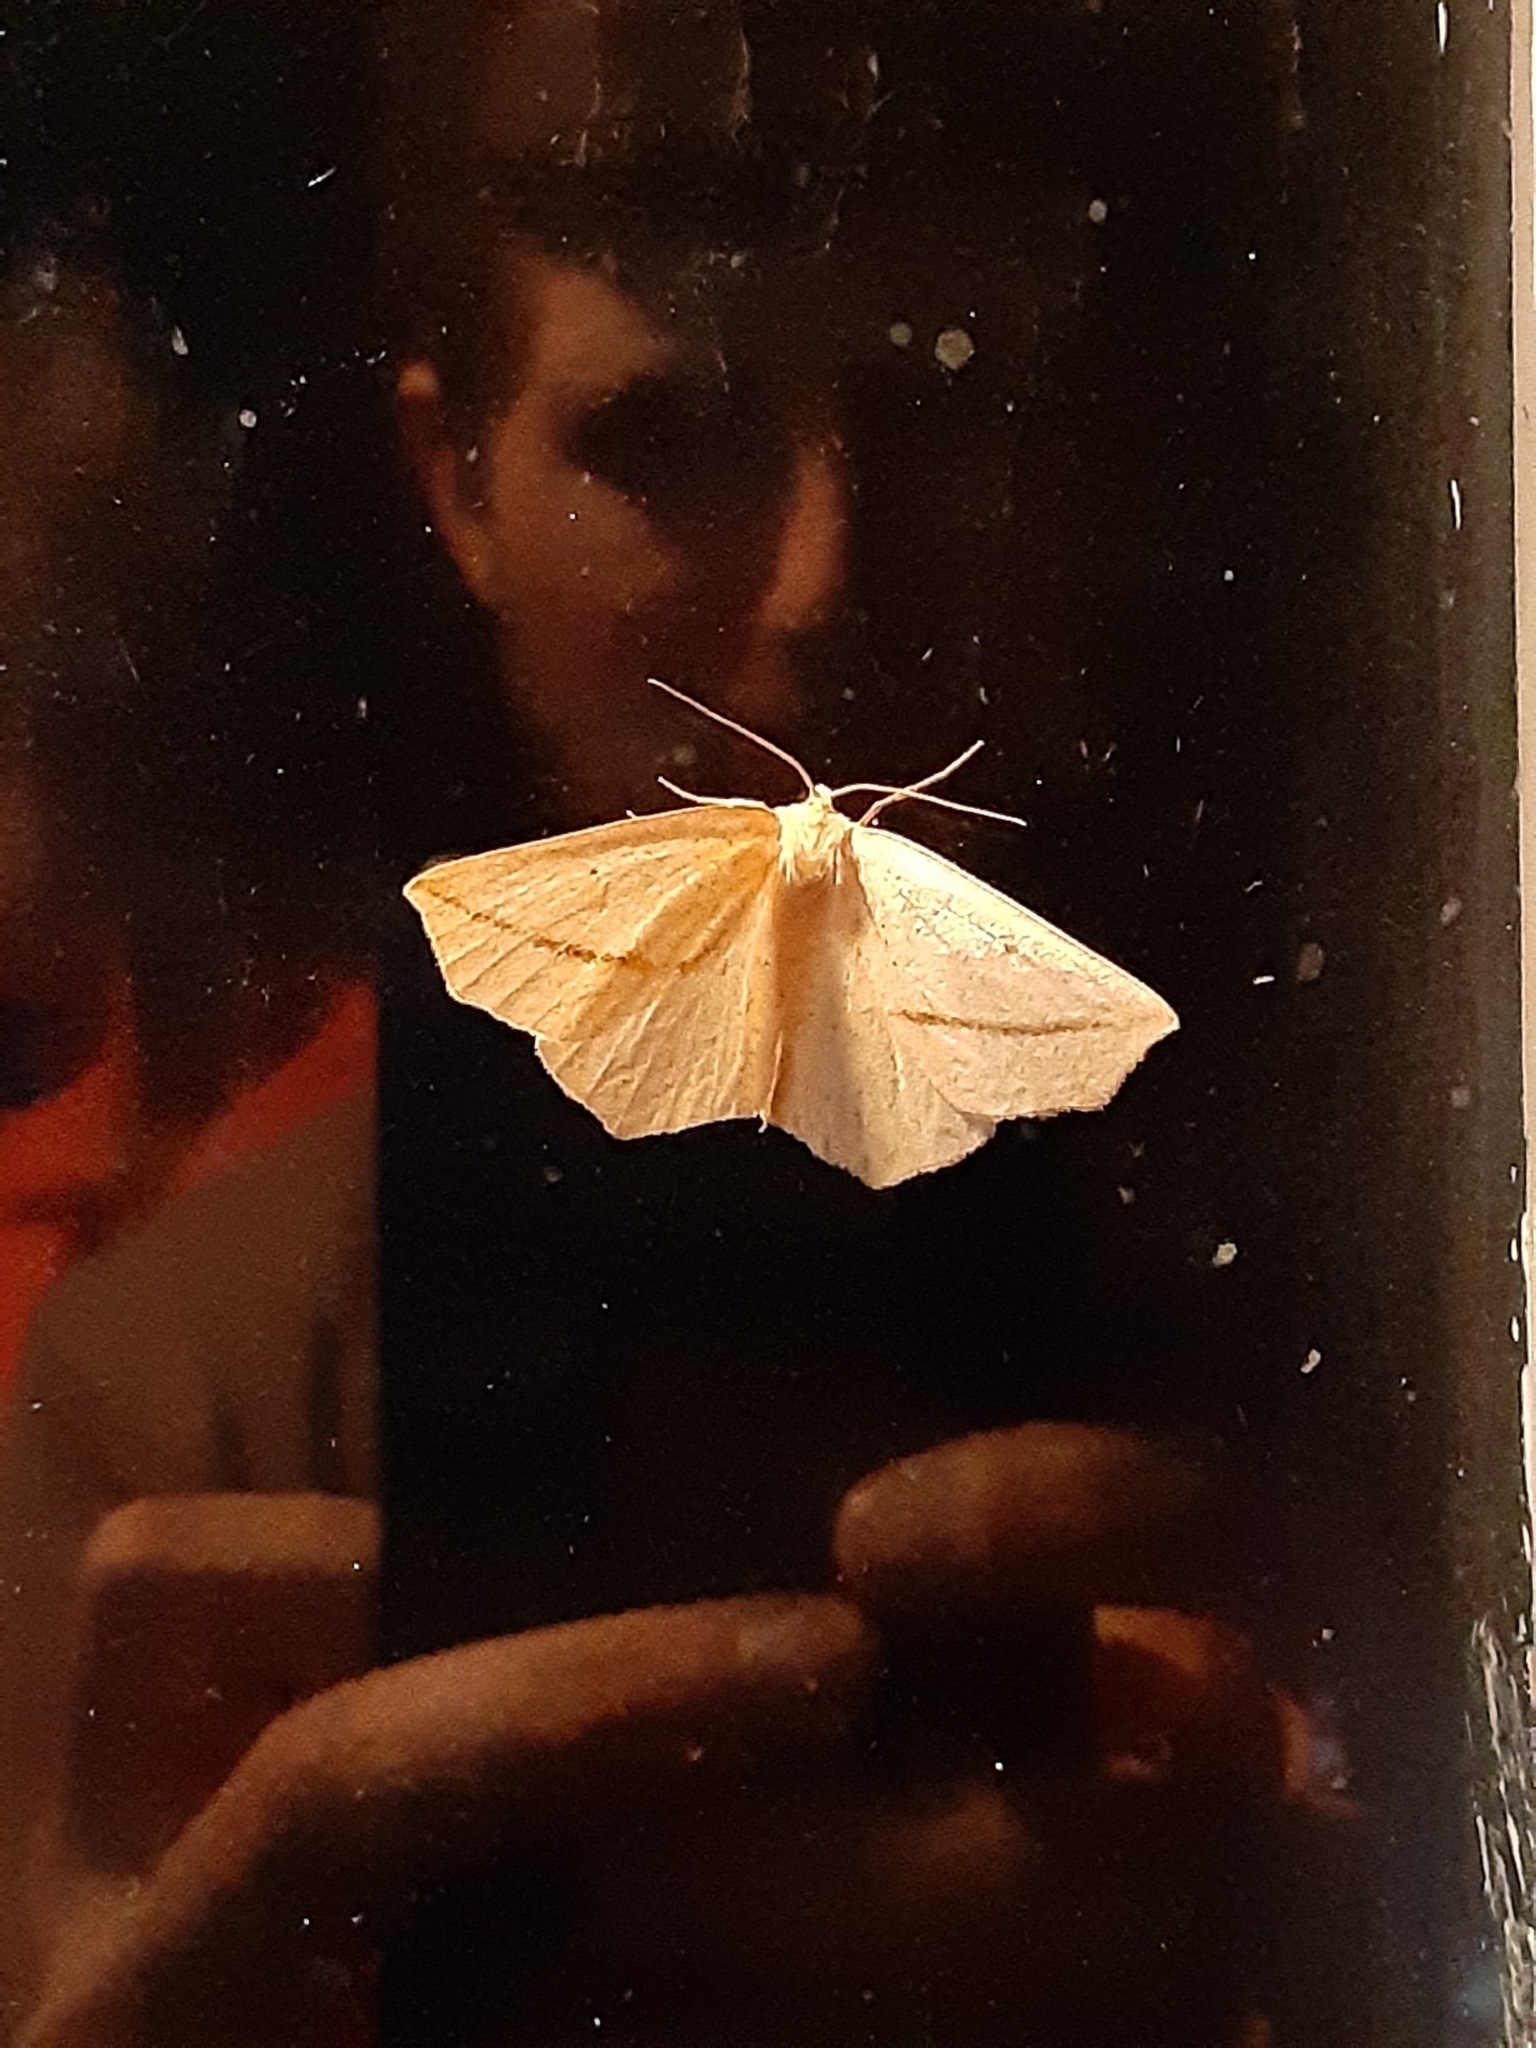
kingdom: Animalia
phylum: Arthropoda
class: Insecta
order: Lepidoptera
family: Geometridae
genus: Tetracis
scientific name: Tetracis crocallata
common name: Yellow slant-line
